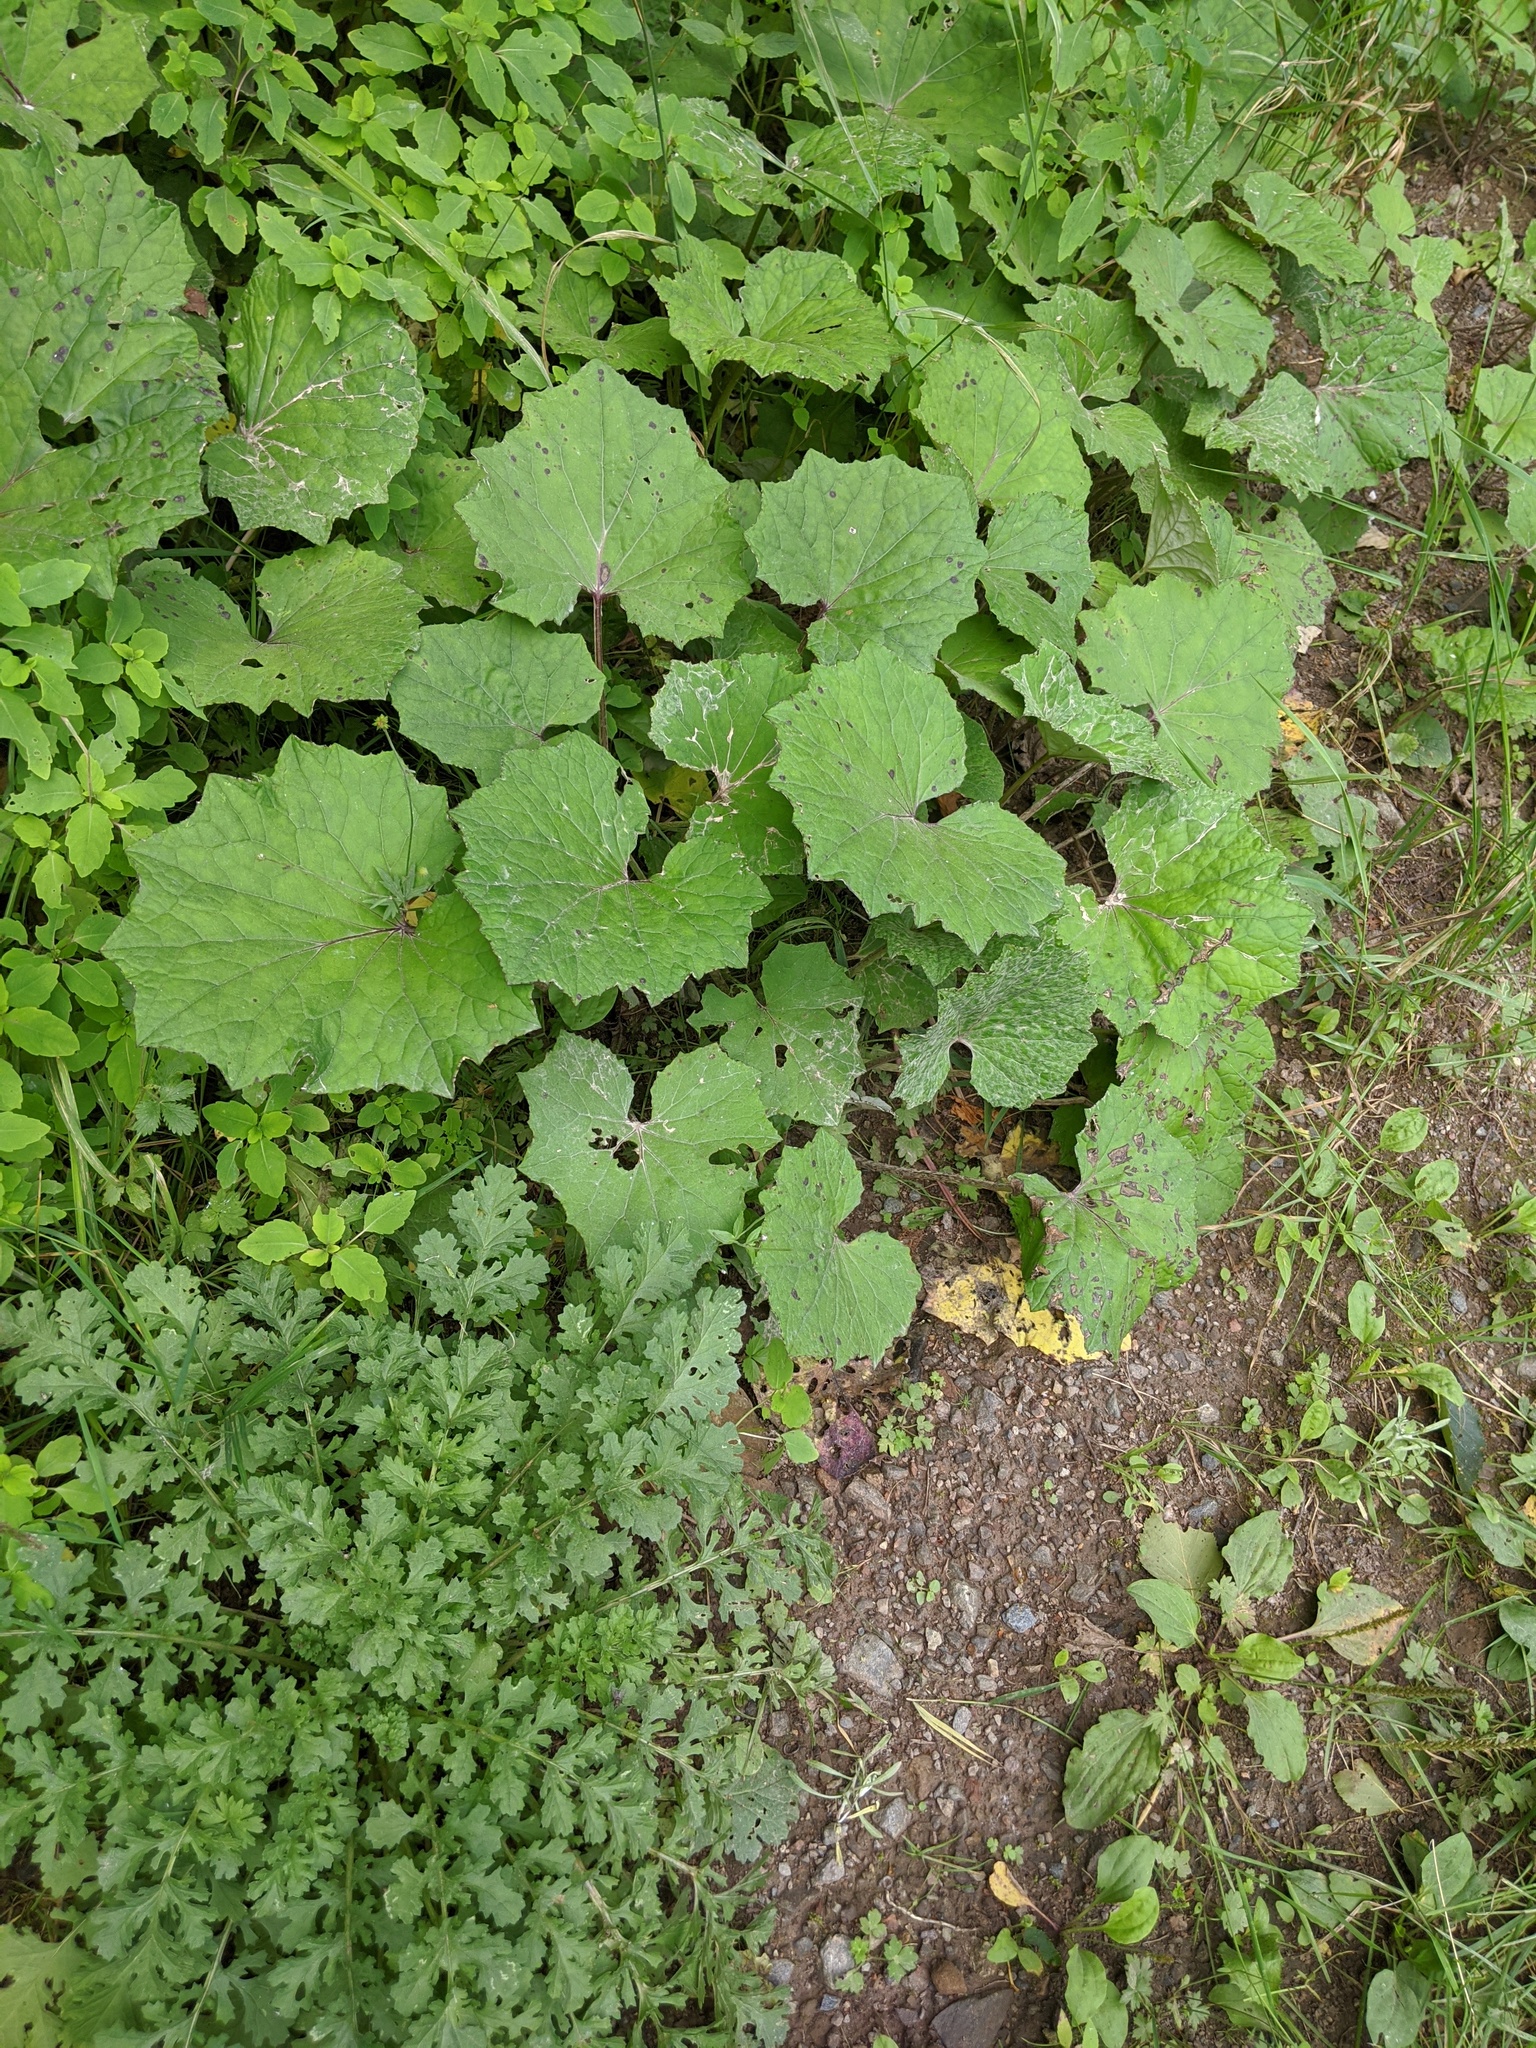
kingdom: Plantae
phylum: Tracheophyta
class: Magnoliopsida
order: Asterales
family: Asteraceae
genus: Tussilago
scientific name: Tussilago farfara
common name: Coltsfoot
